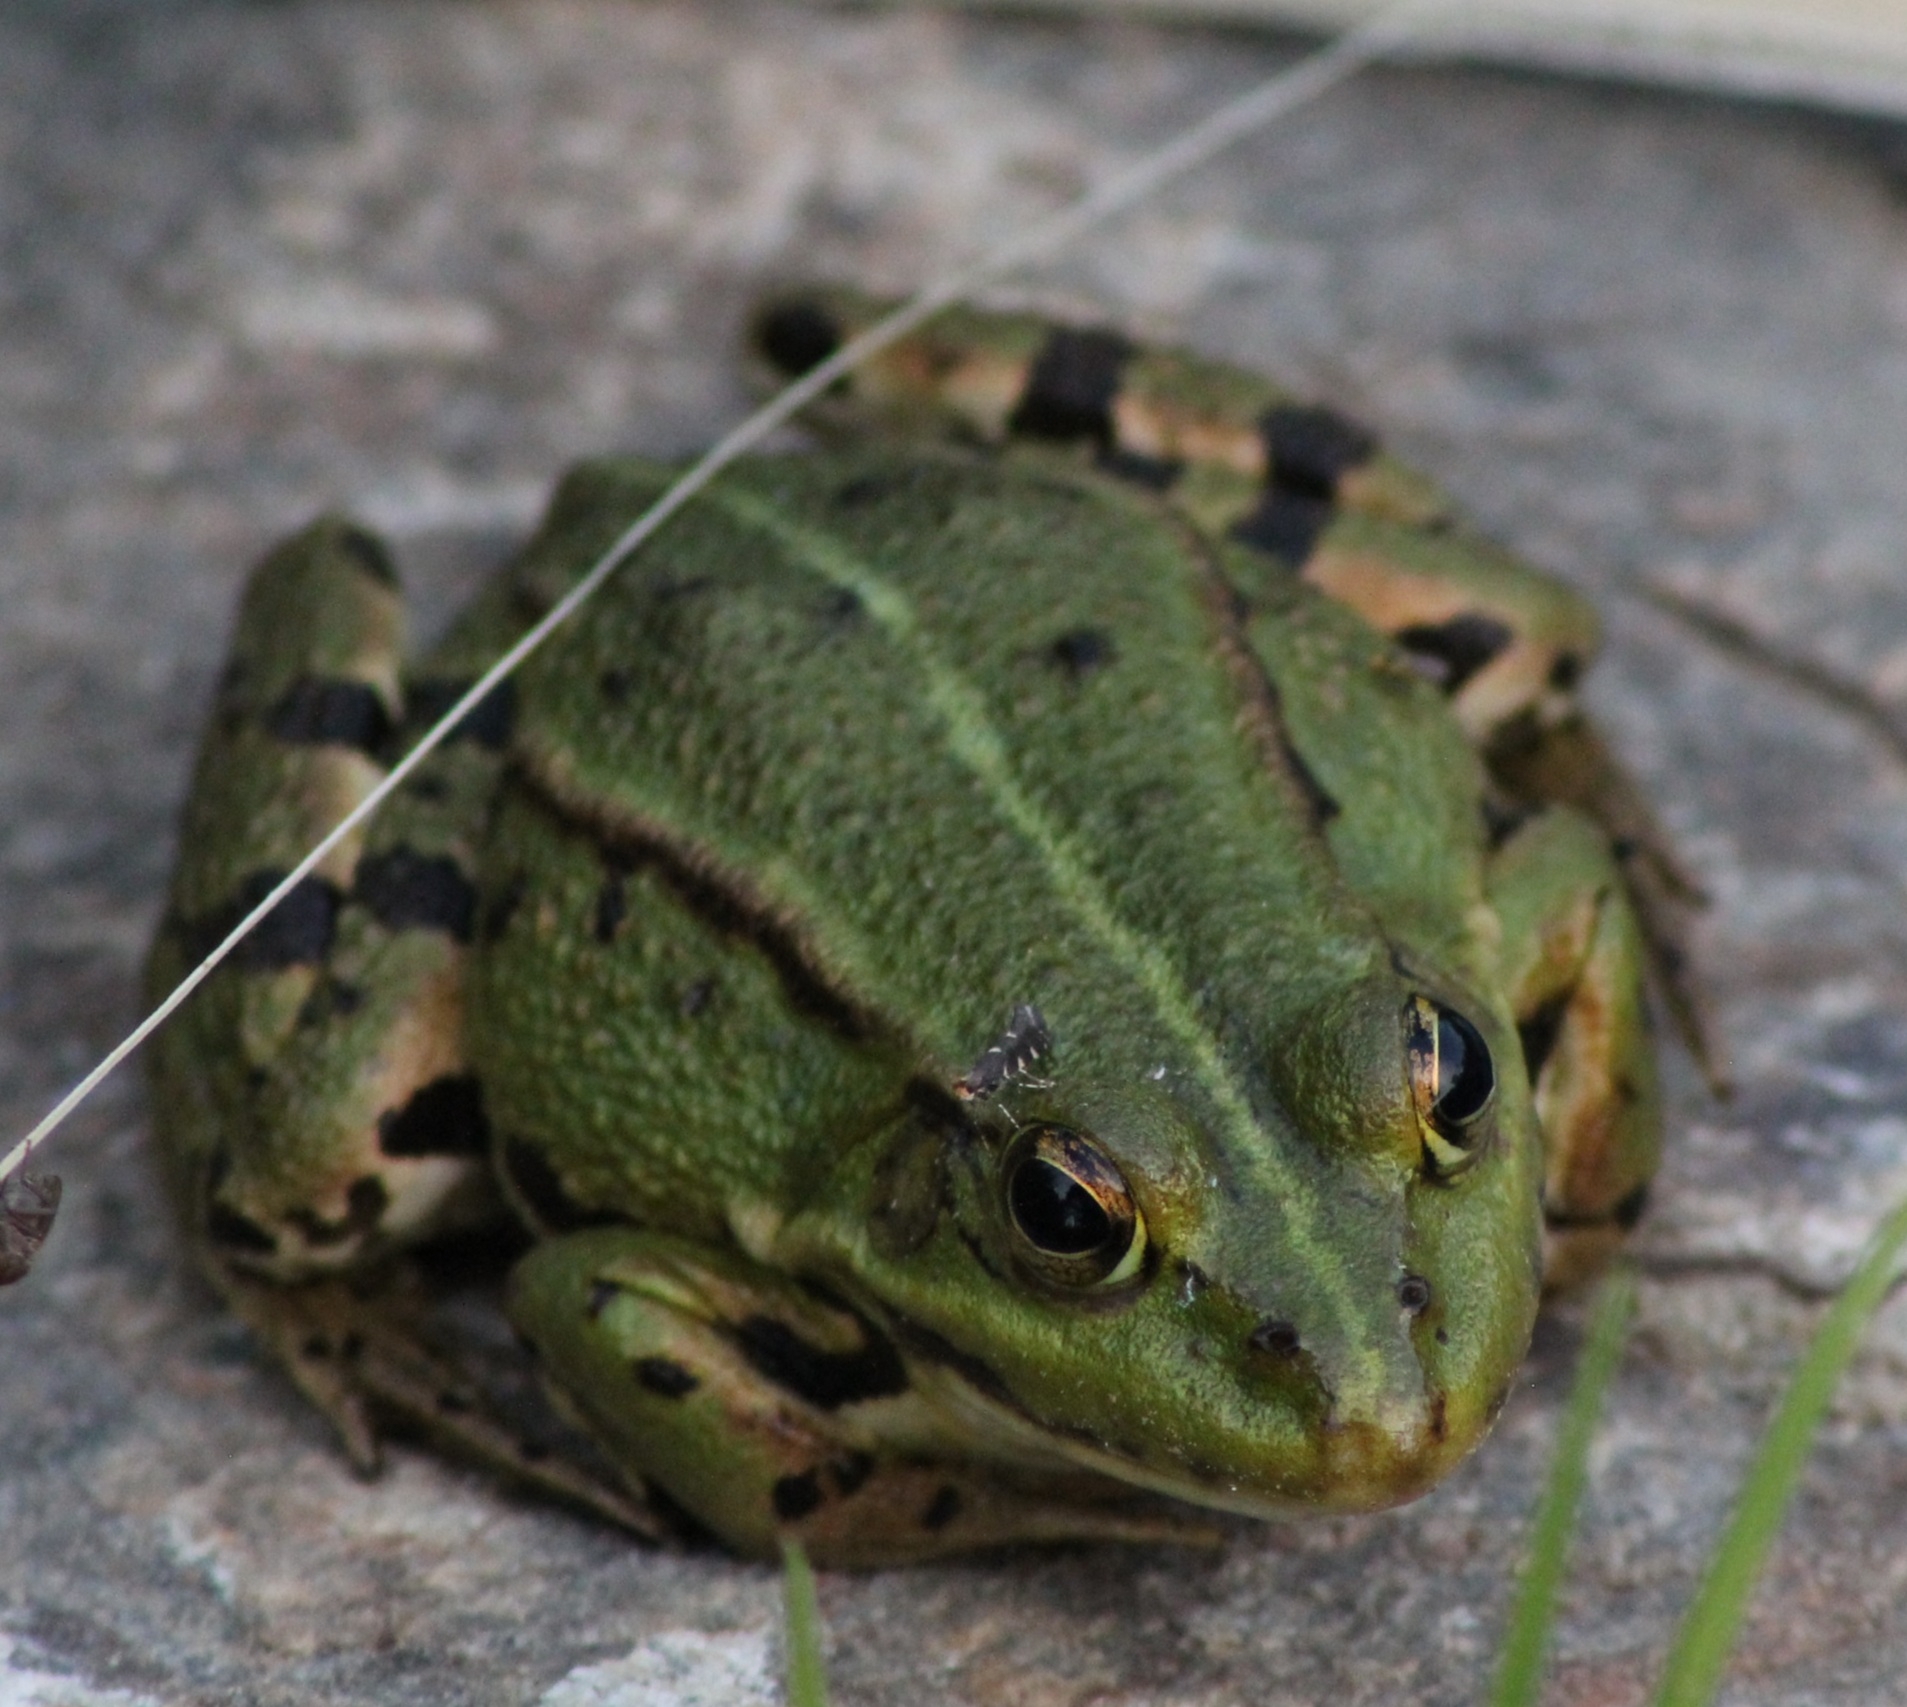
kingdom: Animalia
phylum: Arthropoda
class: Insecta
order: Lepidoptera
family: Gracillariidae
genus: Callisto
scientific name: Callisto denticulella
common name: Garden apple slender
